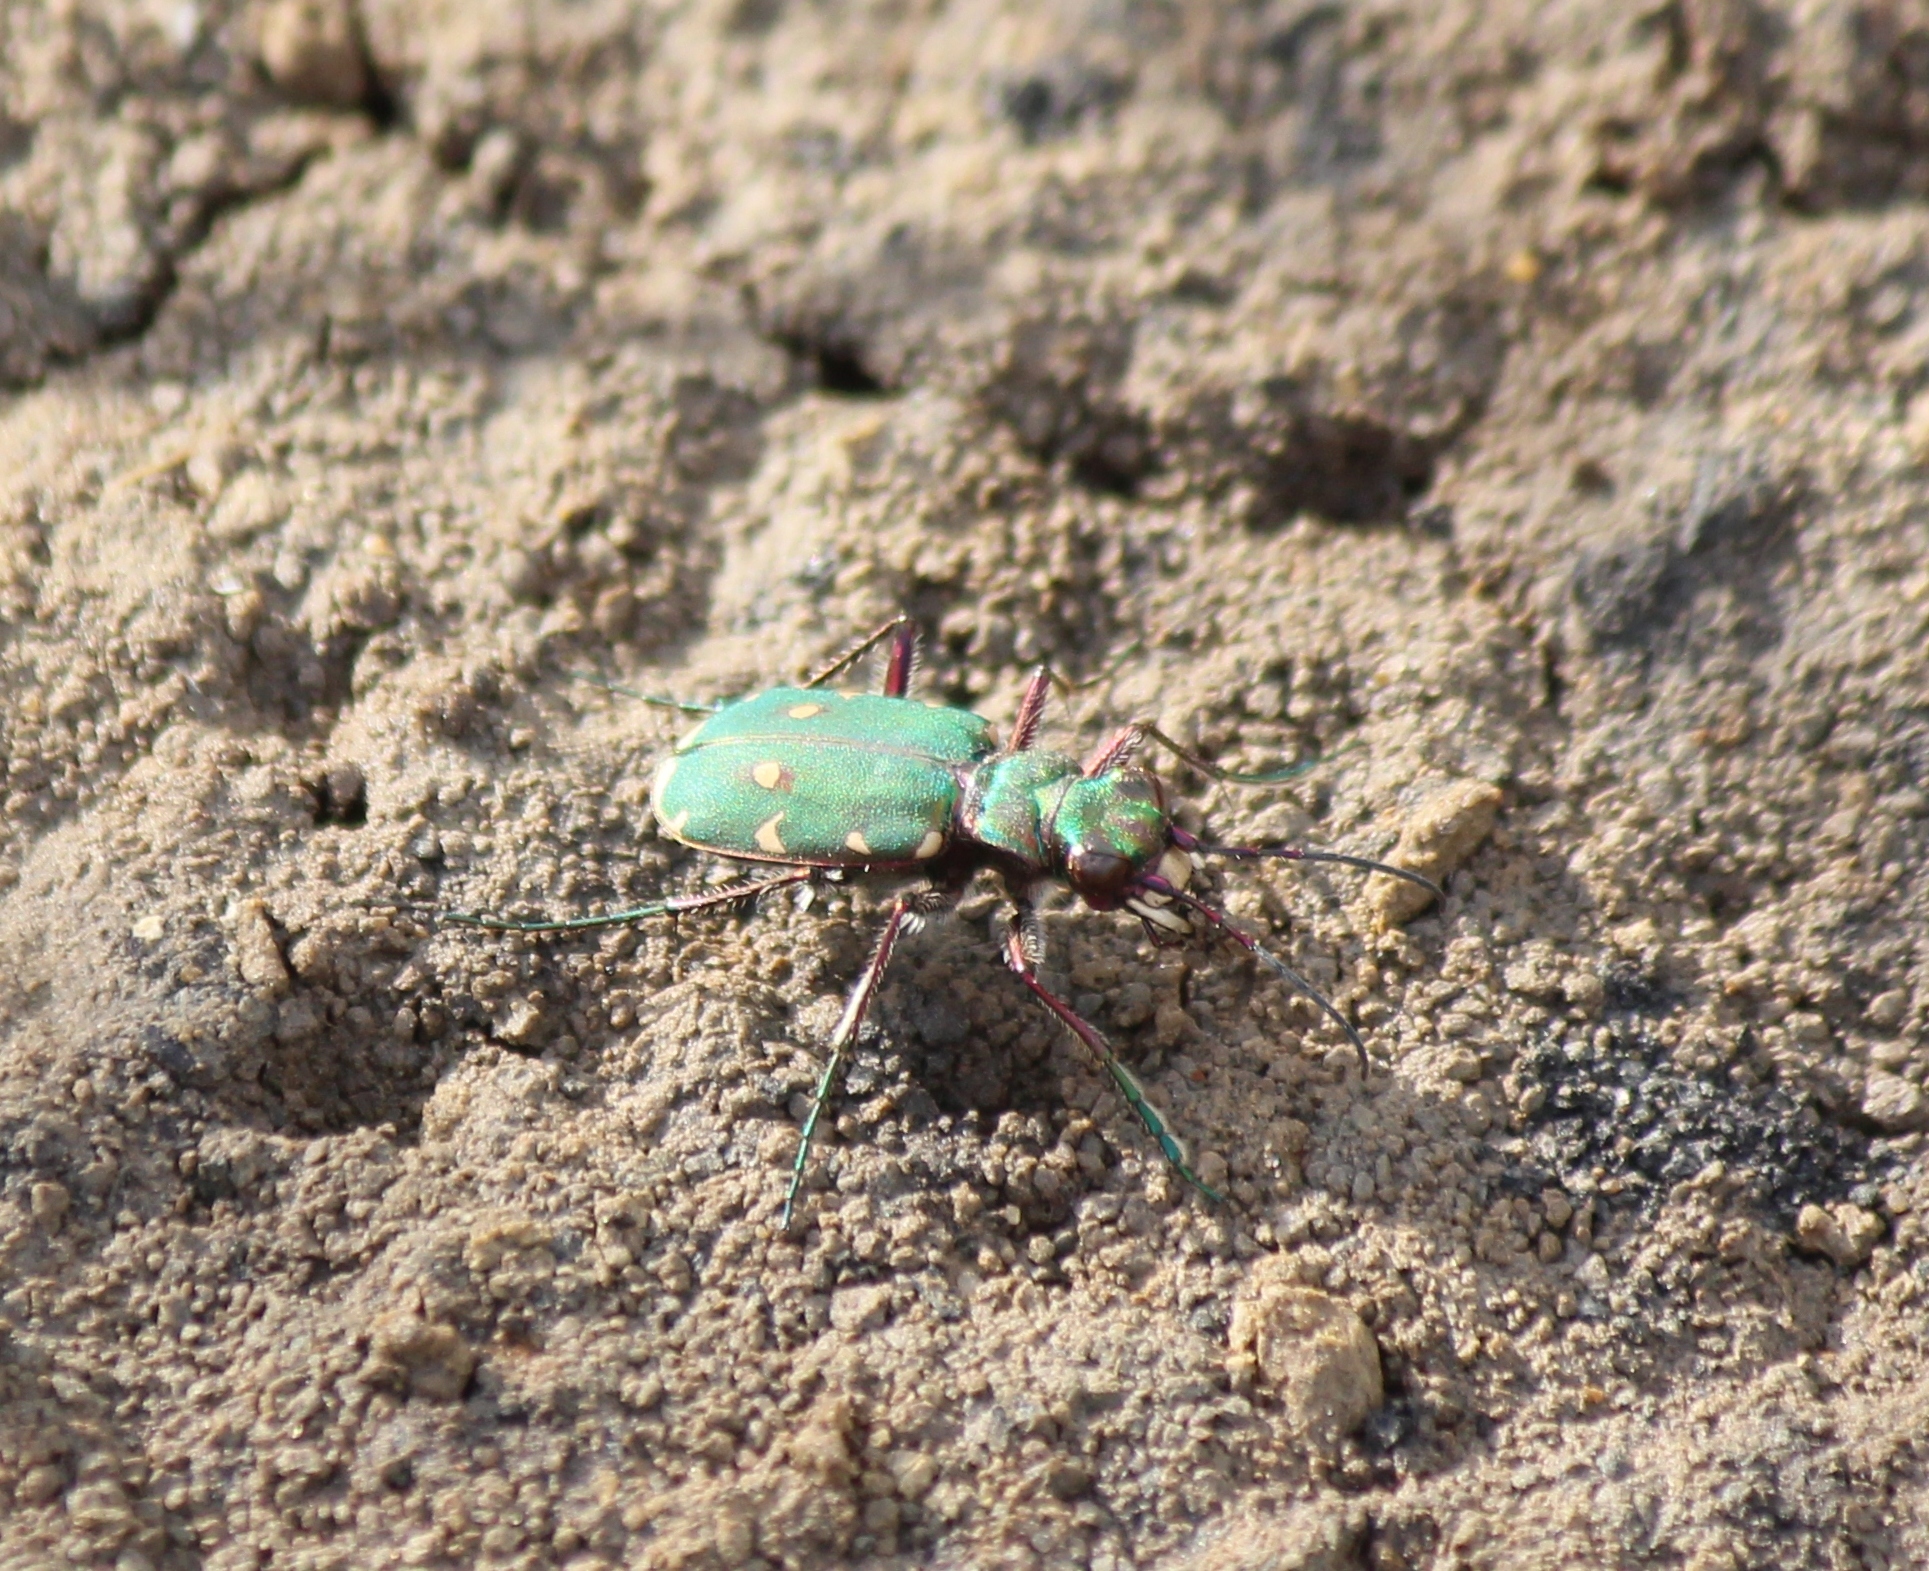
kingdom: Animalia
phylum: Arthropoda
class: Insecta
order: Coleoptera
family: Carabidae
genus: Cicindela
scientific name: Cicindela campestris
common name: Common tiger beetle
